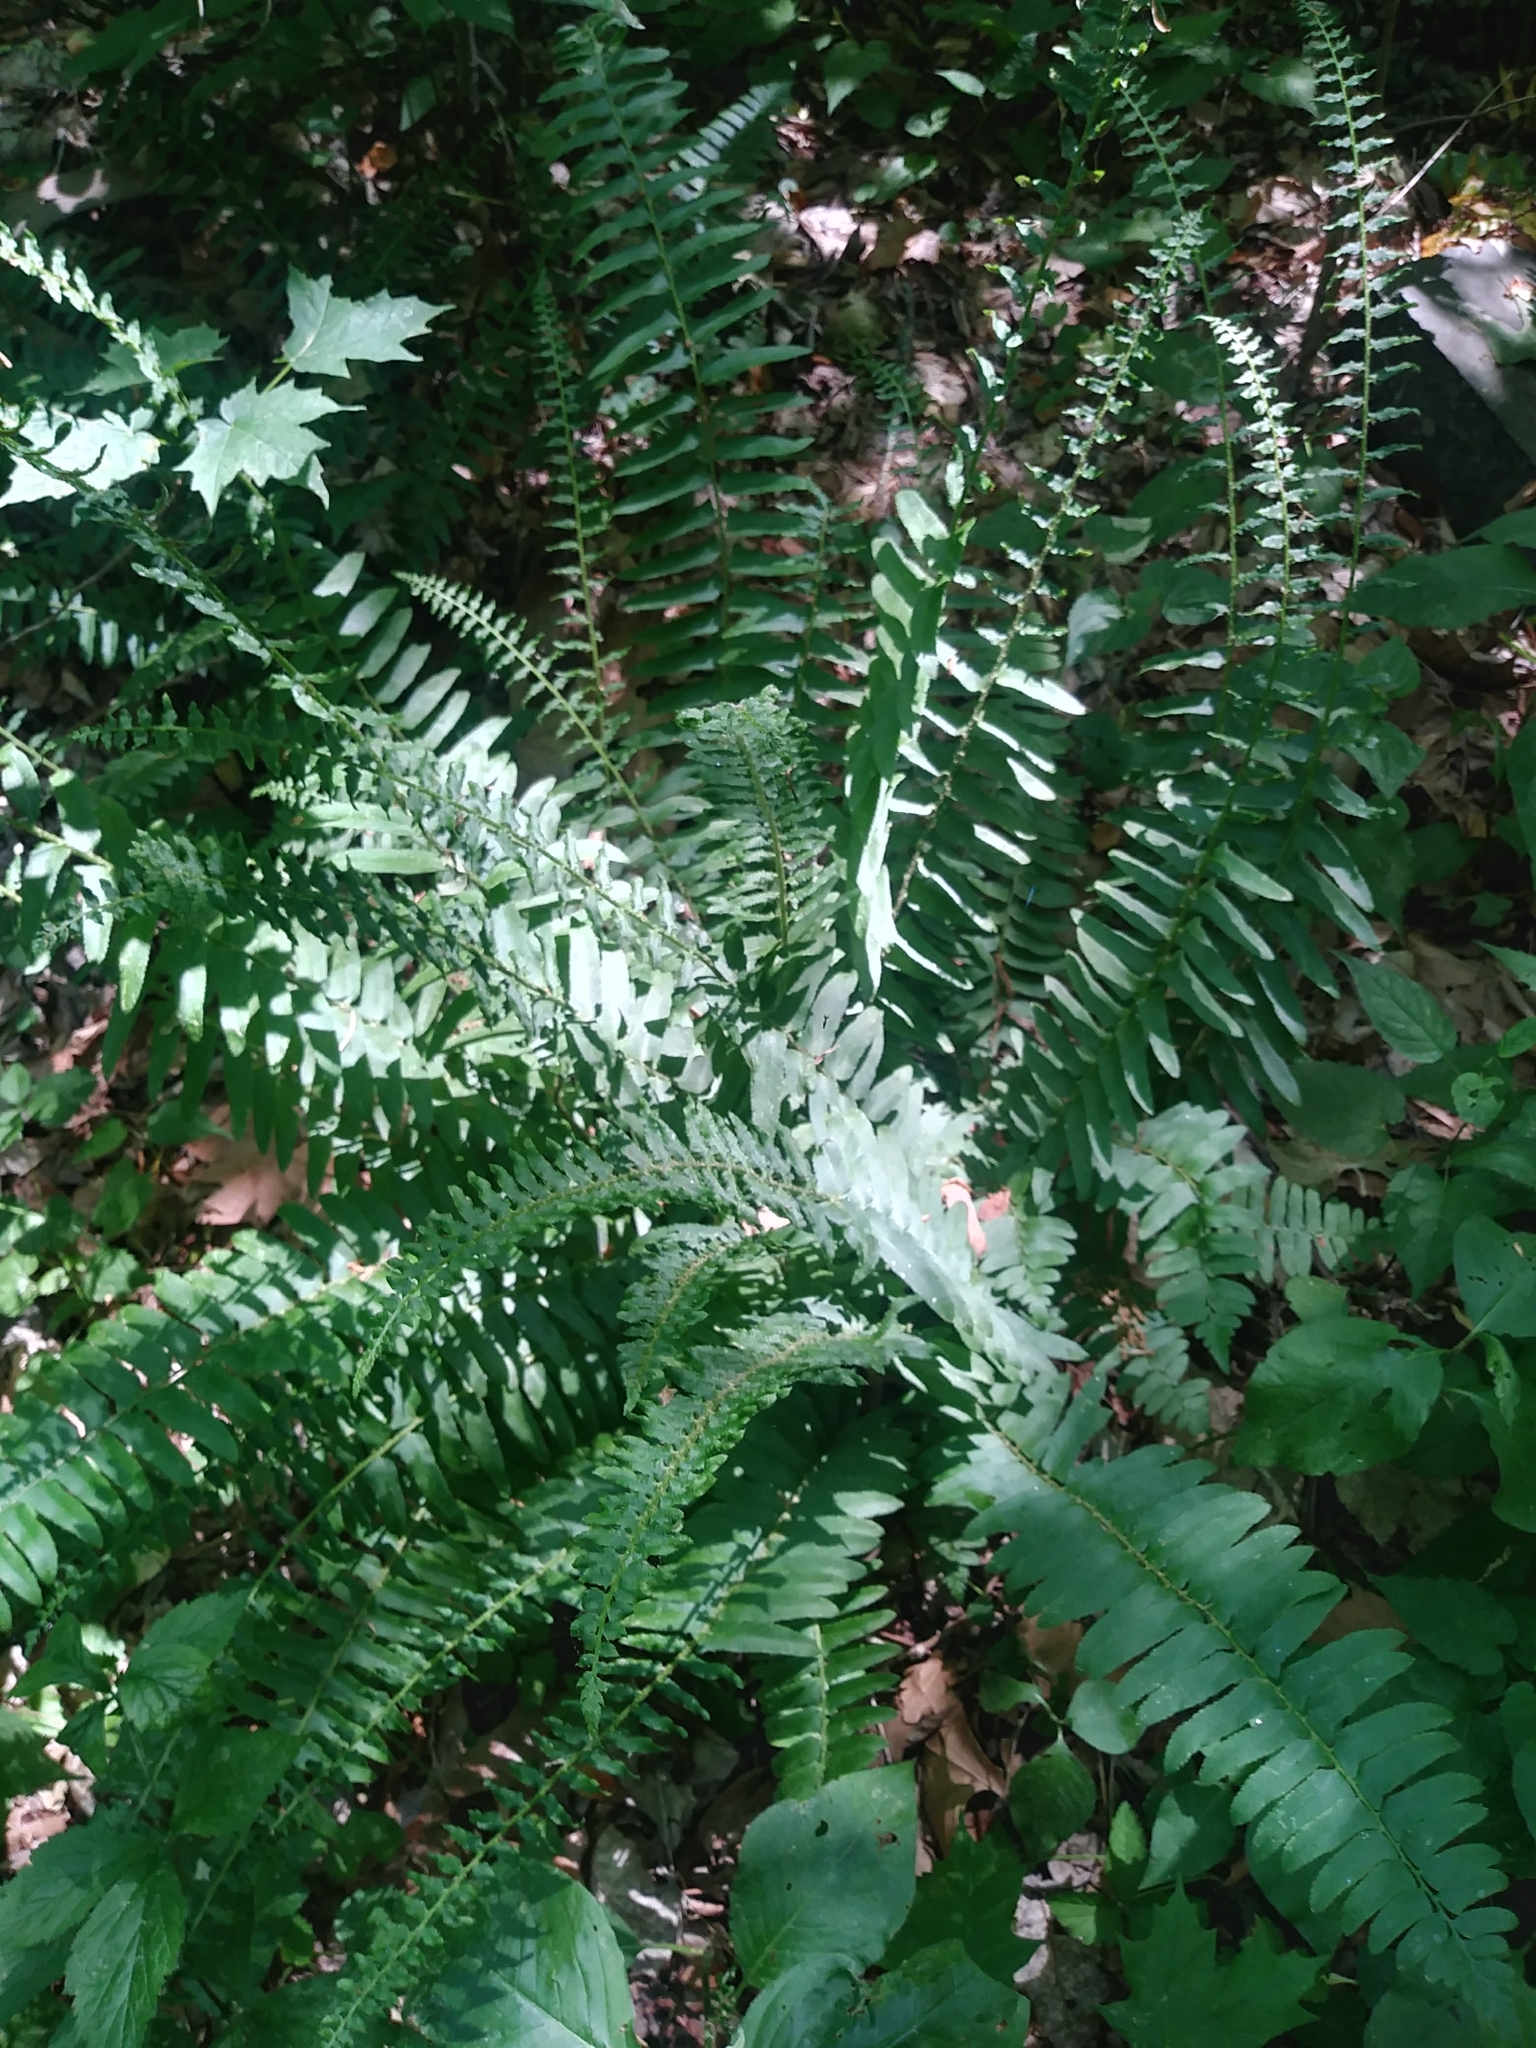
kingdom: Plantae
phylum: Tracheophyta
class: Polypodiopsida
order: Polypodiales
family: Dryopteridaceae
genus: Polystichum
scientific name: Polystichum acrostichoides
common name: Christmas fern
